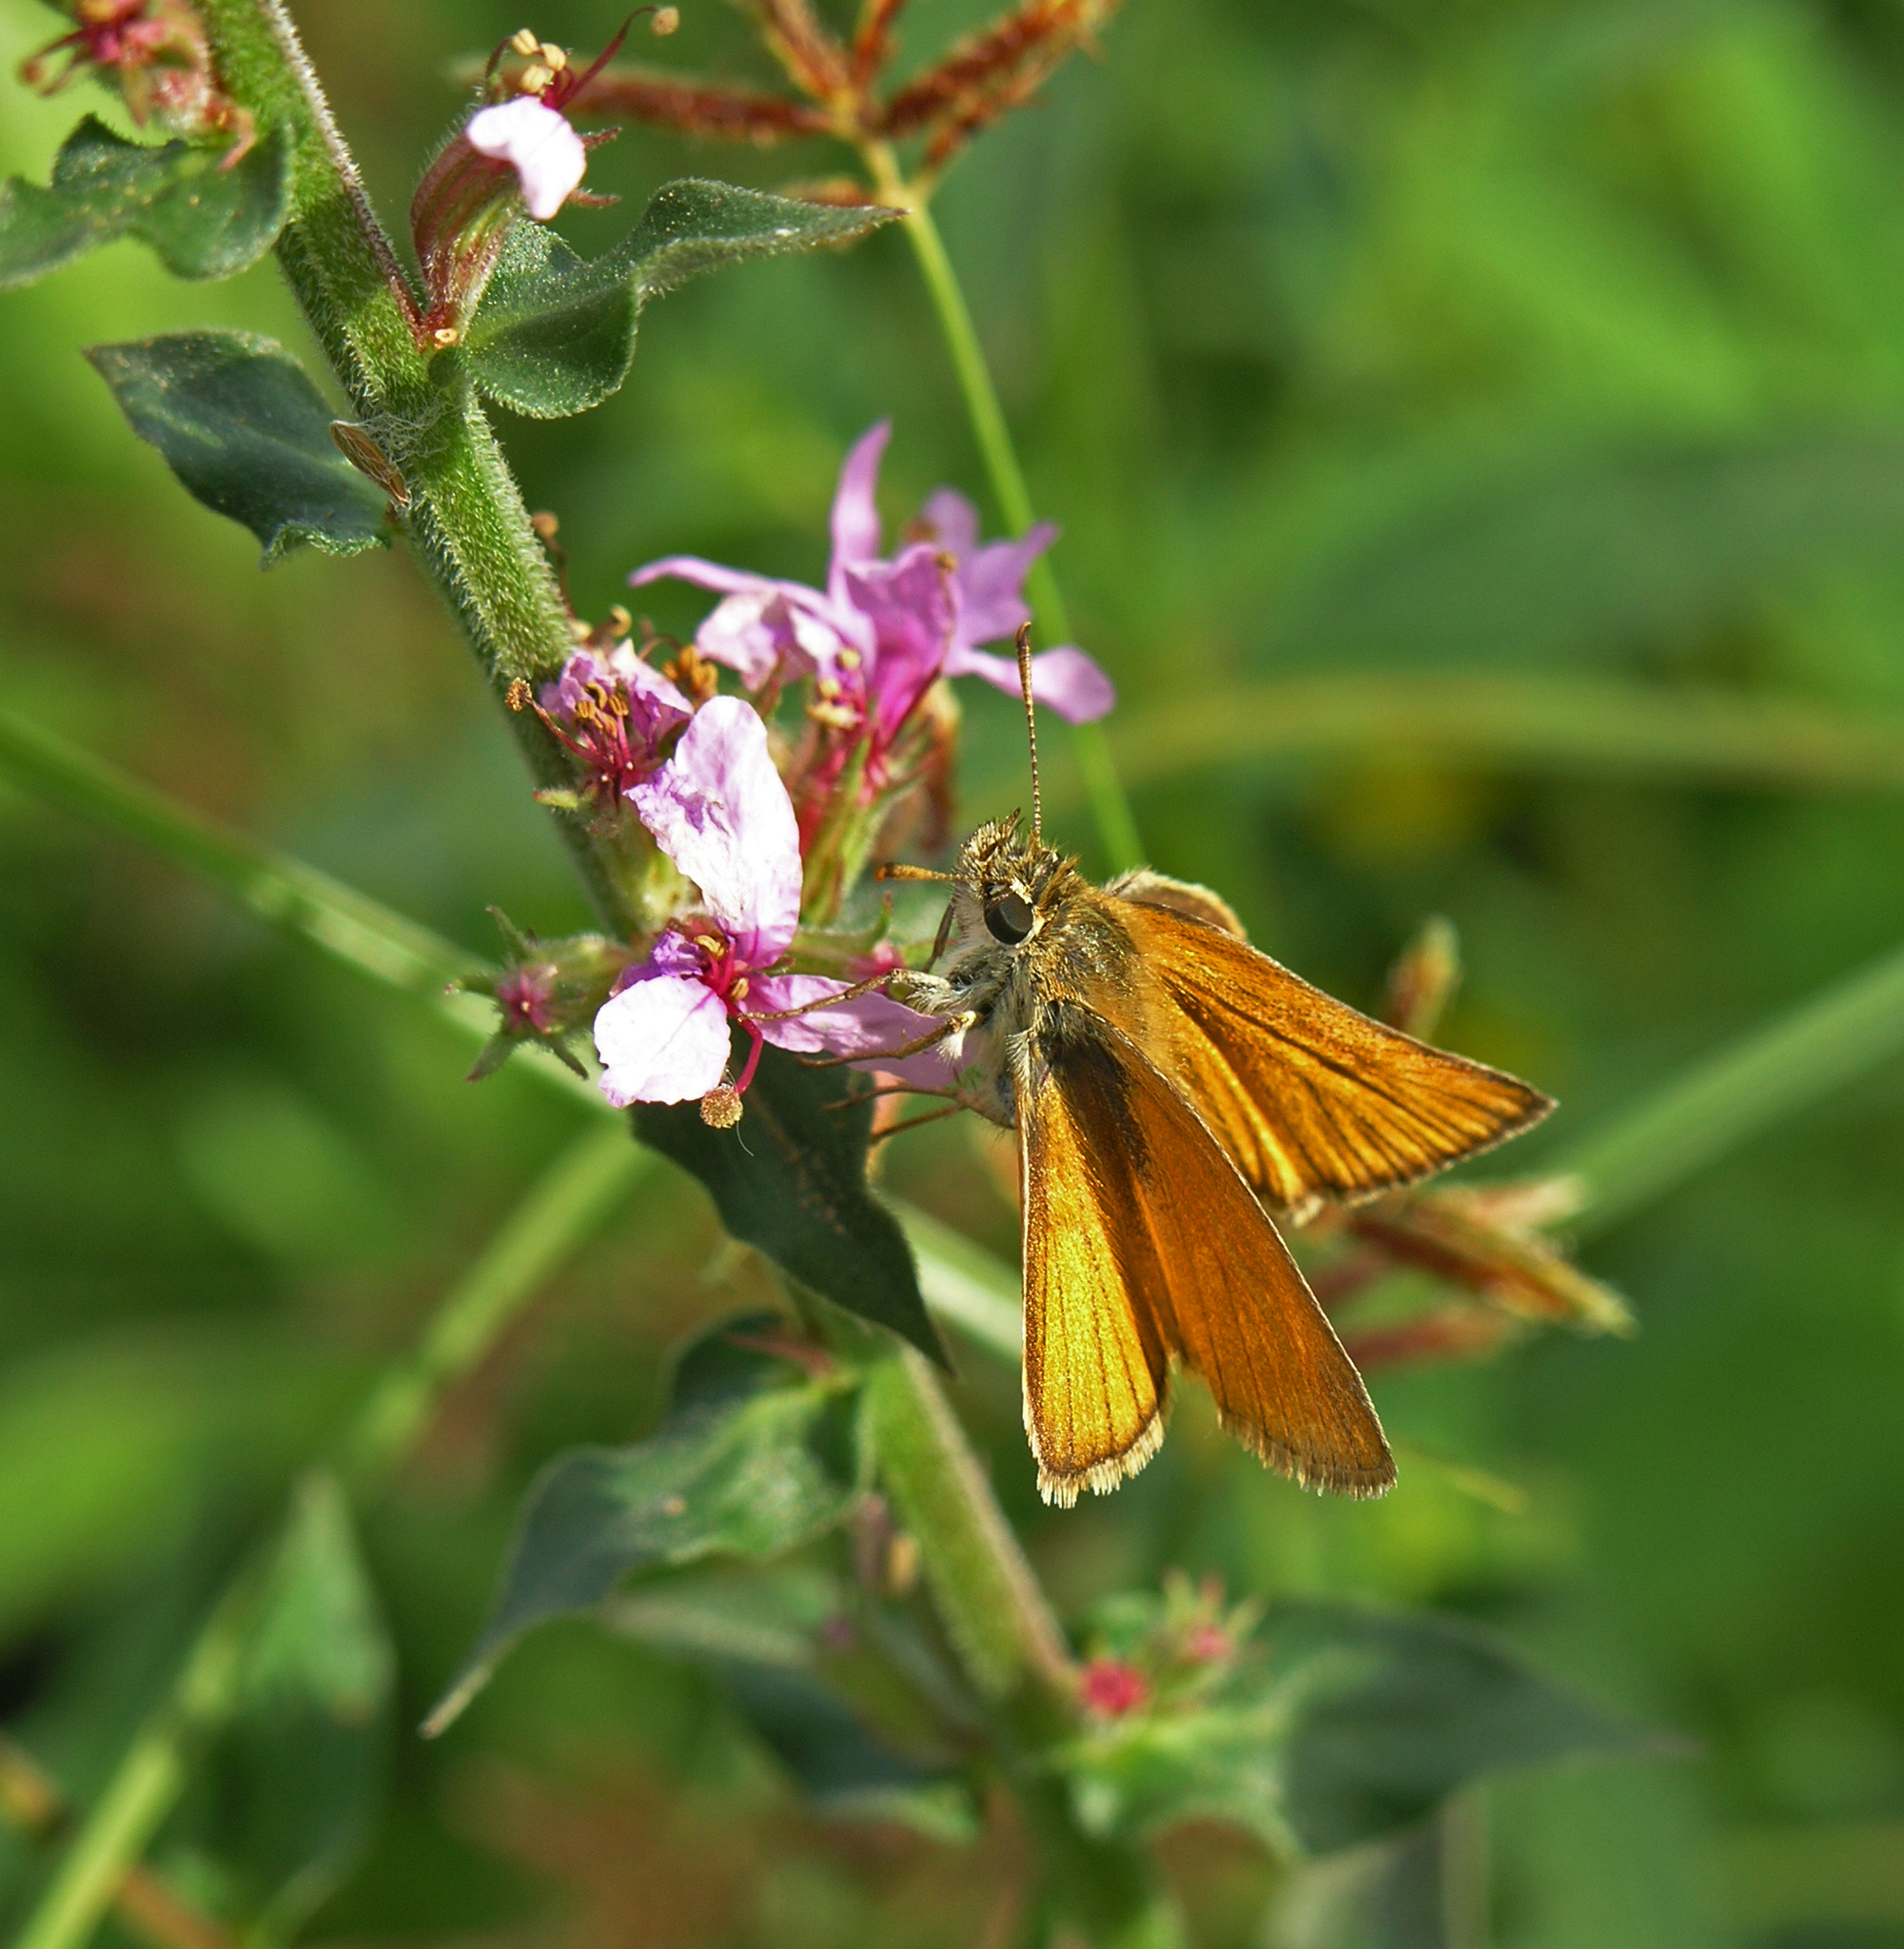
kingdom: Animalia
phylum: Arthropoda
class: Insecta
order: Lepidoptera
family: Hesperiidae
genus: Thymelicus
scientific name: Thymelicus sylvestris
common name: Small skipper
